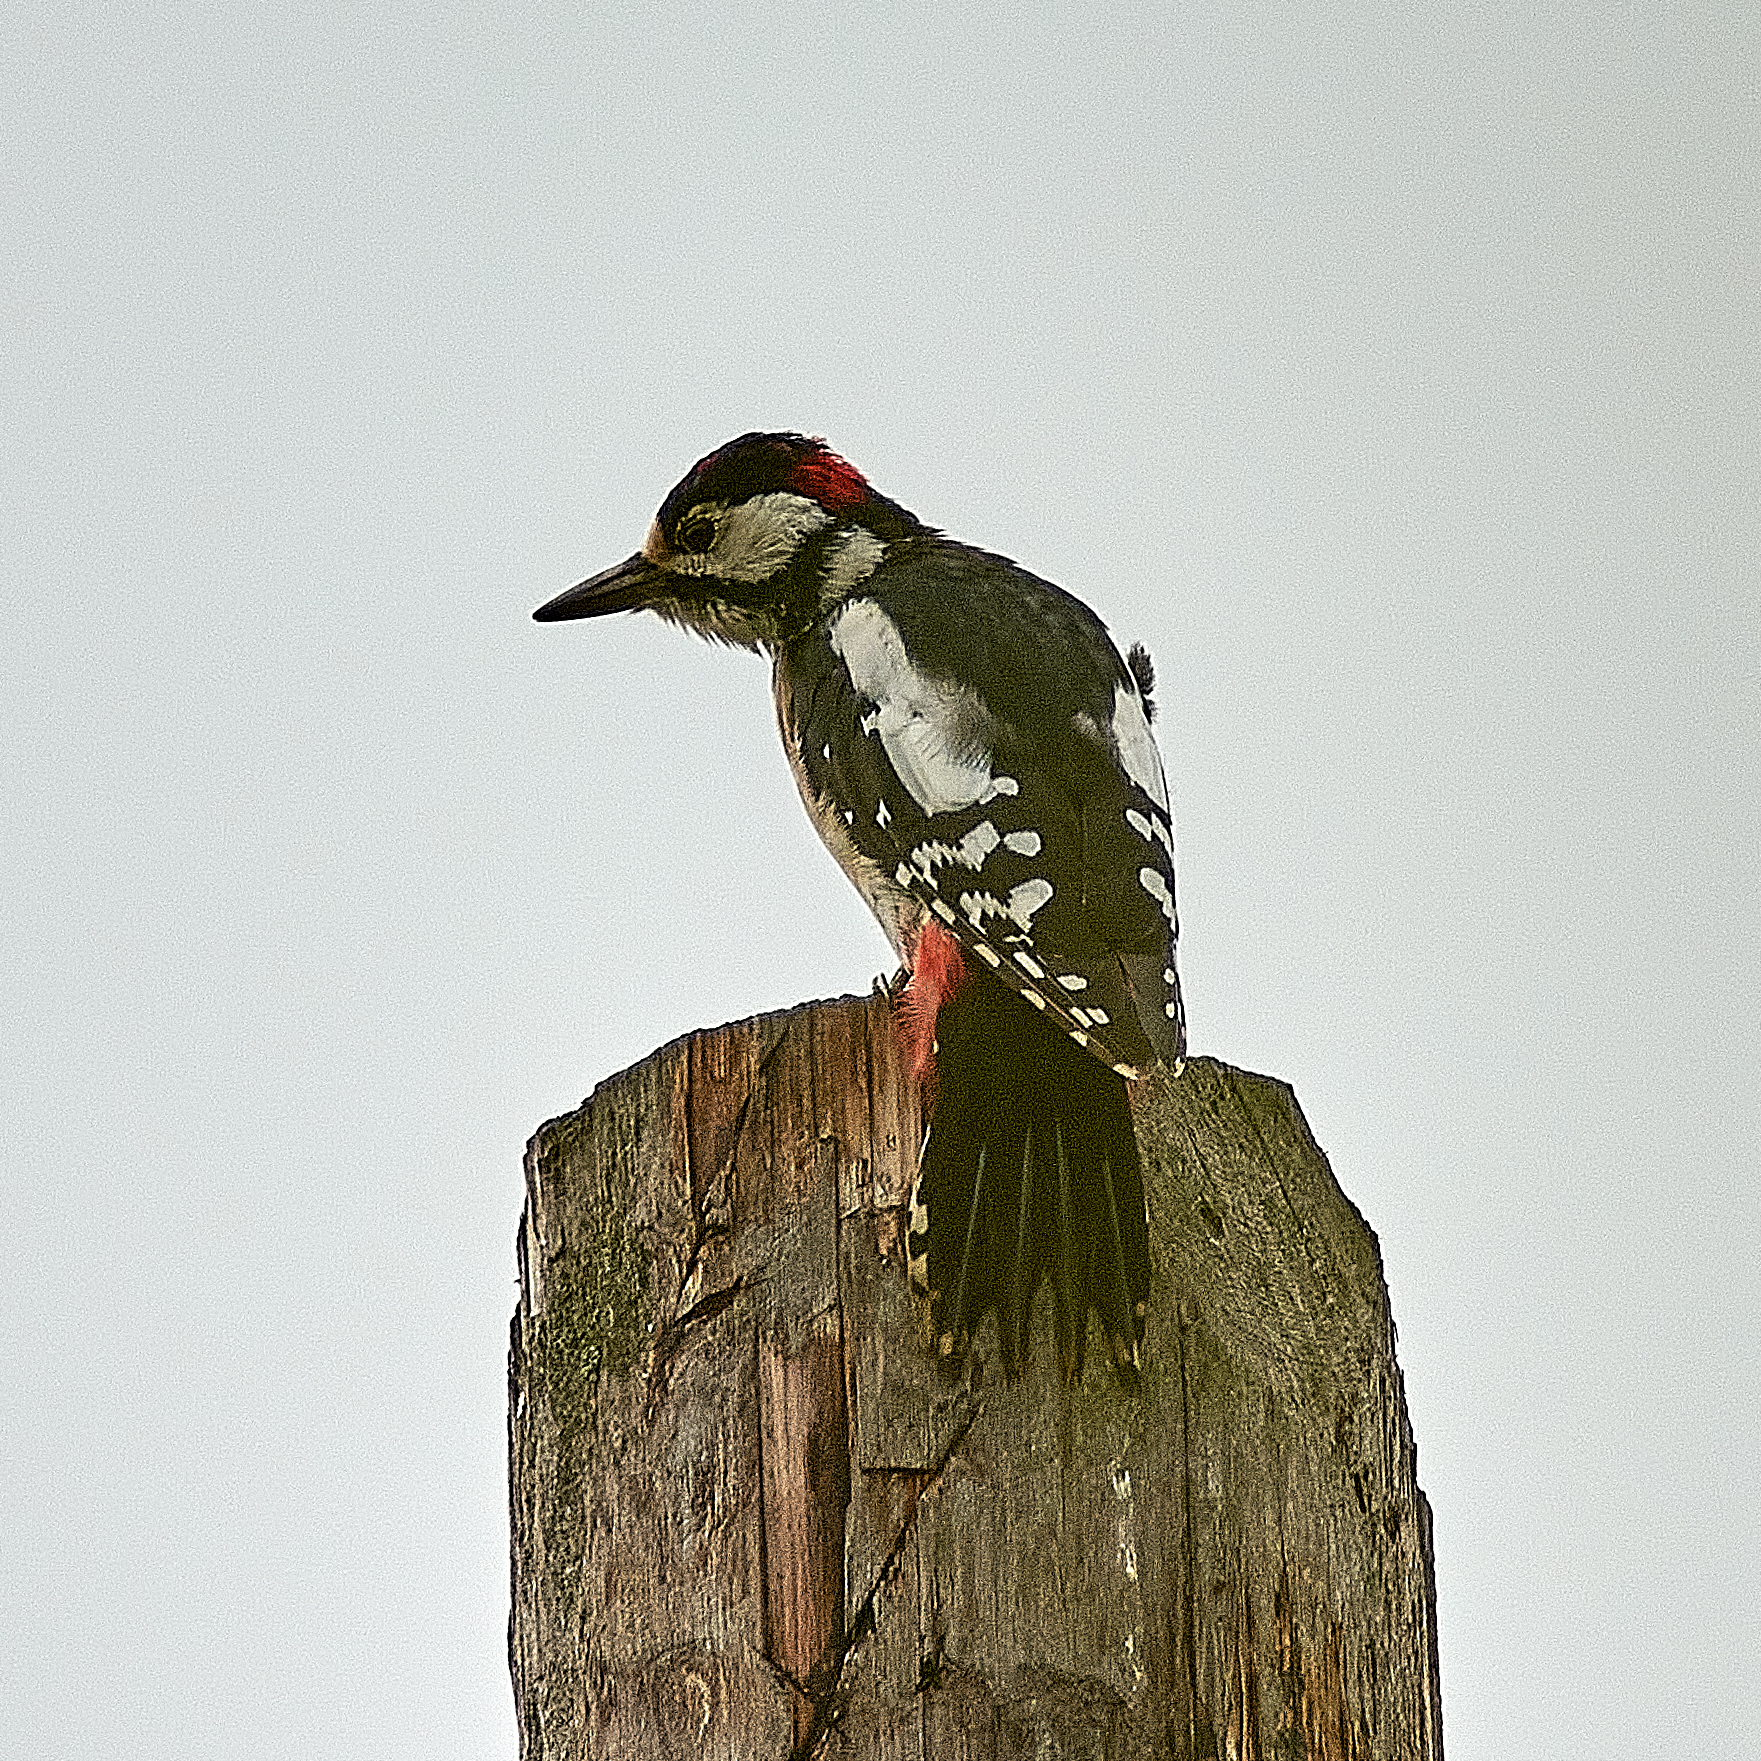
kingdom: Animalia
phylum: Chordata
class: Aves
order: Piciformes
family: Picidae
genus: Dendrocopos
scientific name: Dendrocopos major
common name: Great spotted woodpecker
